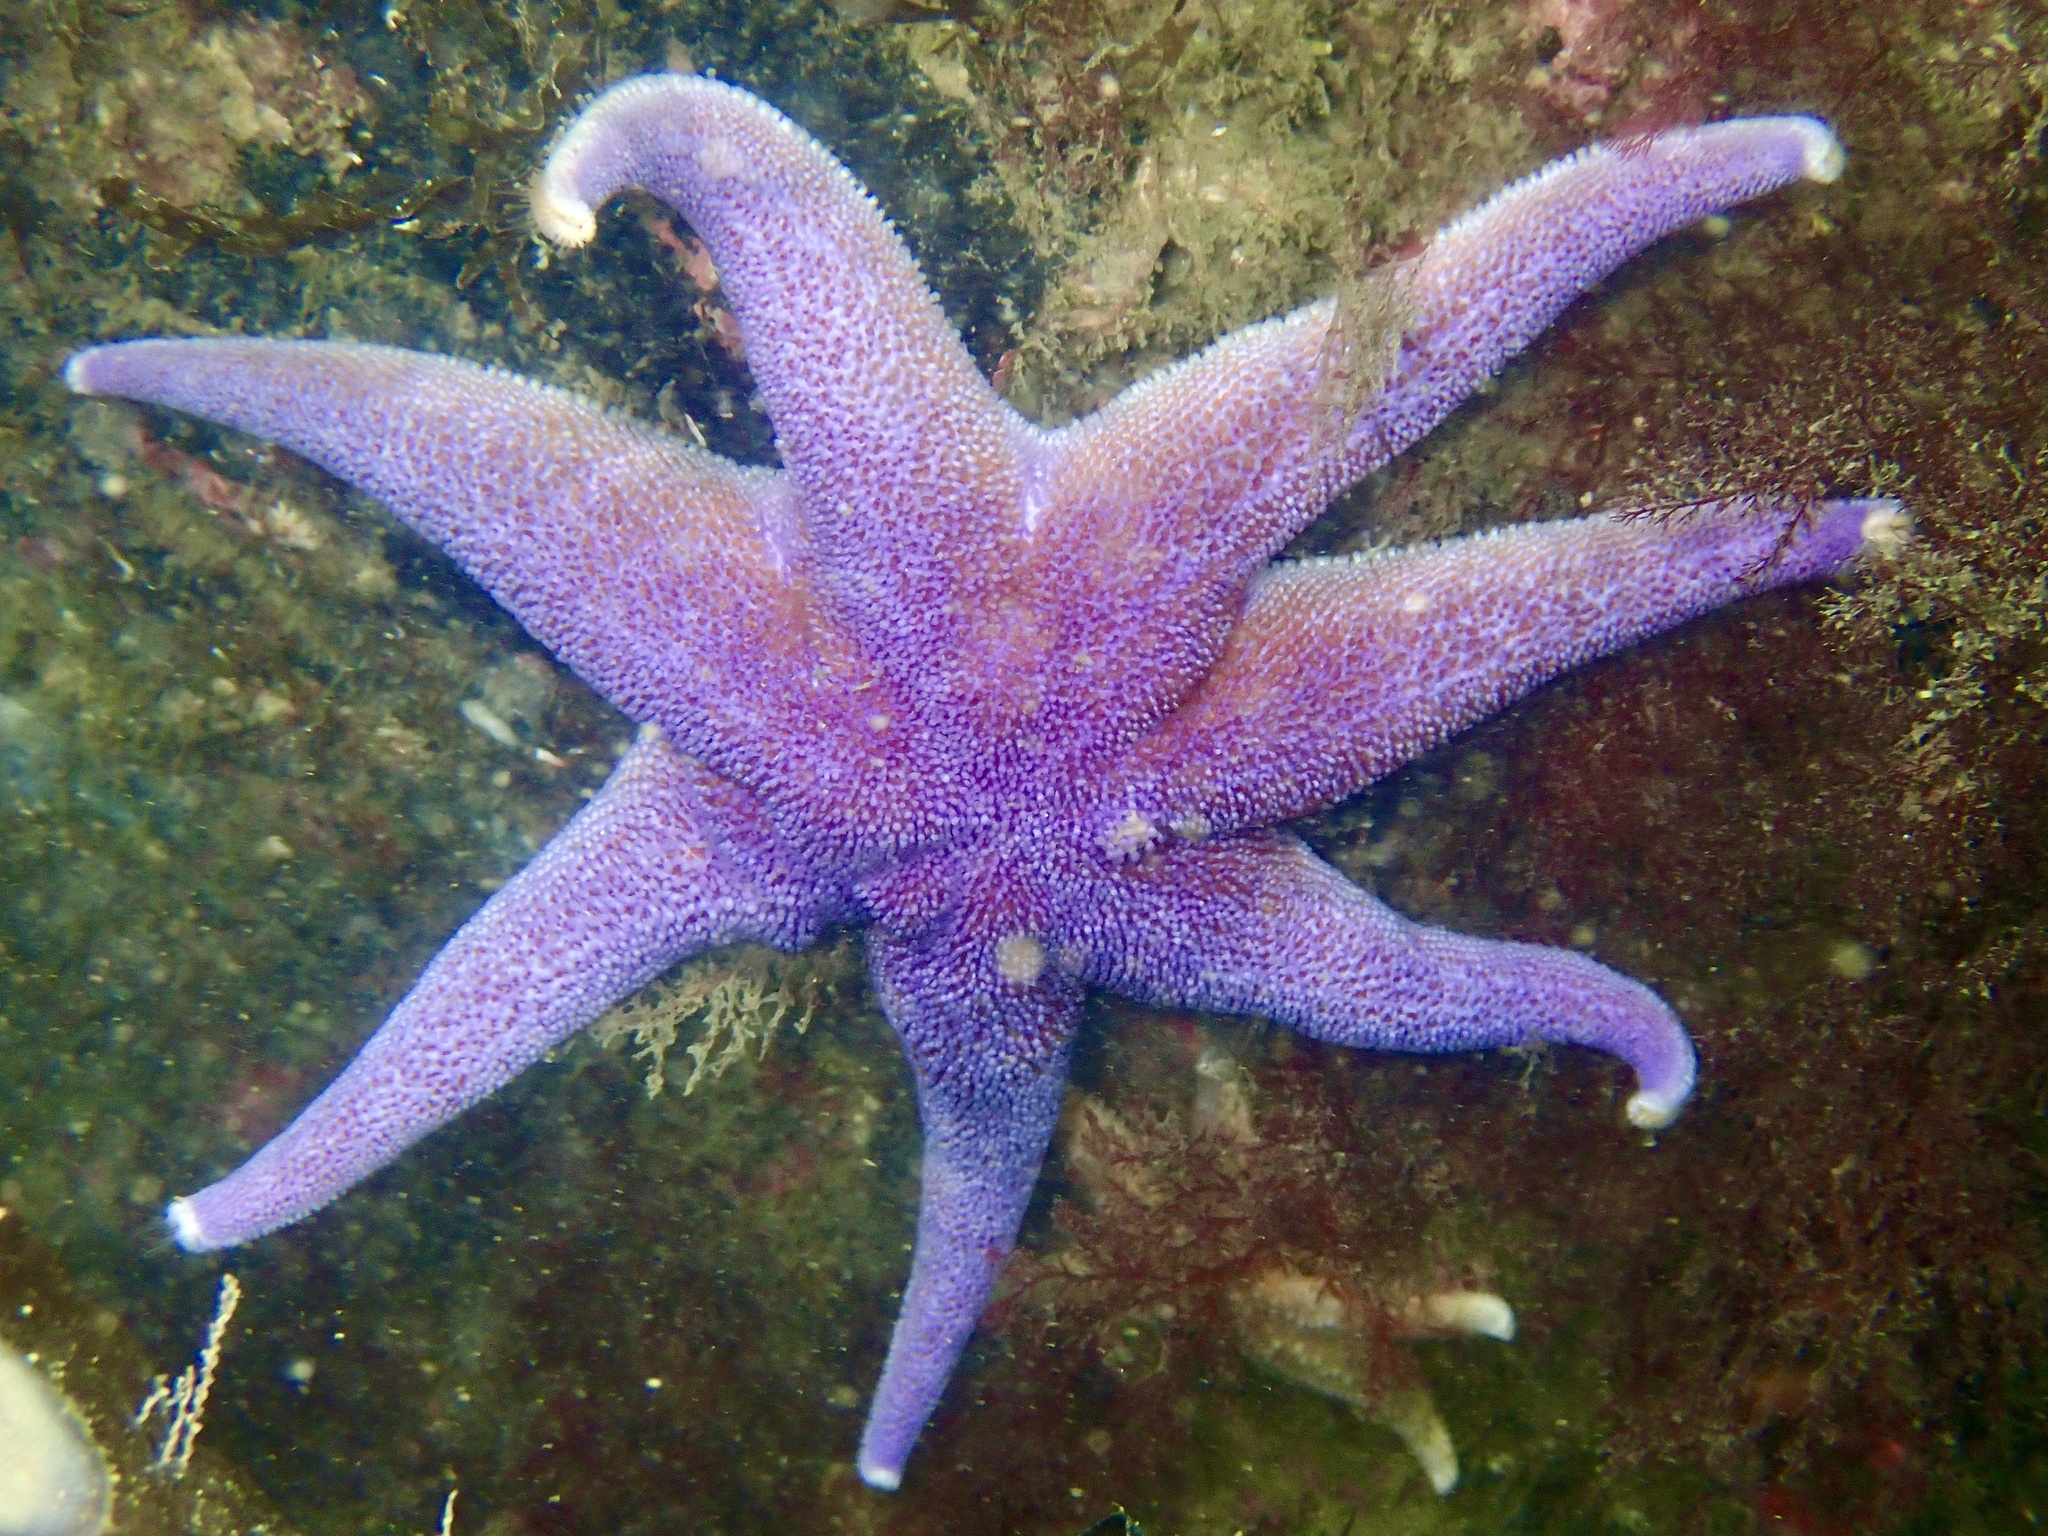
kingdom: Animalia
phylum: Echinodermata
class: Asteroidea
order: Valvatida
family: Solasteridae
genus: Solaster
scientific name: Solaster endeca
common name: Purple sun star
